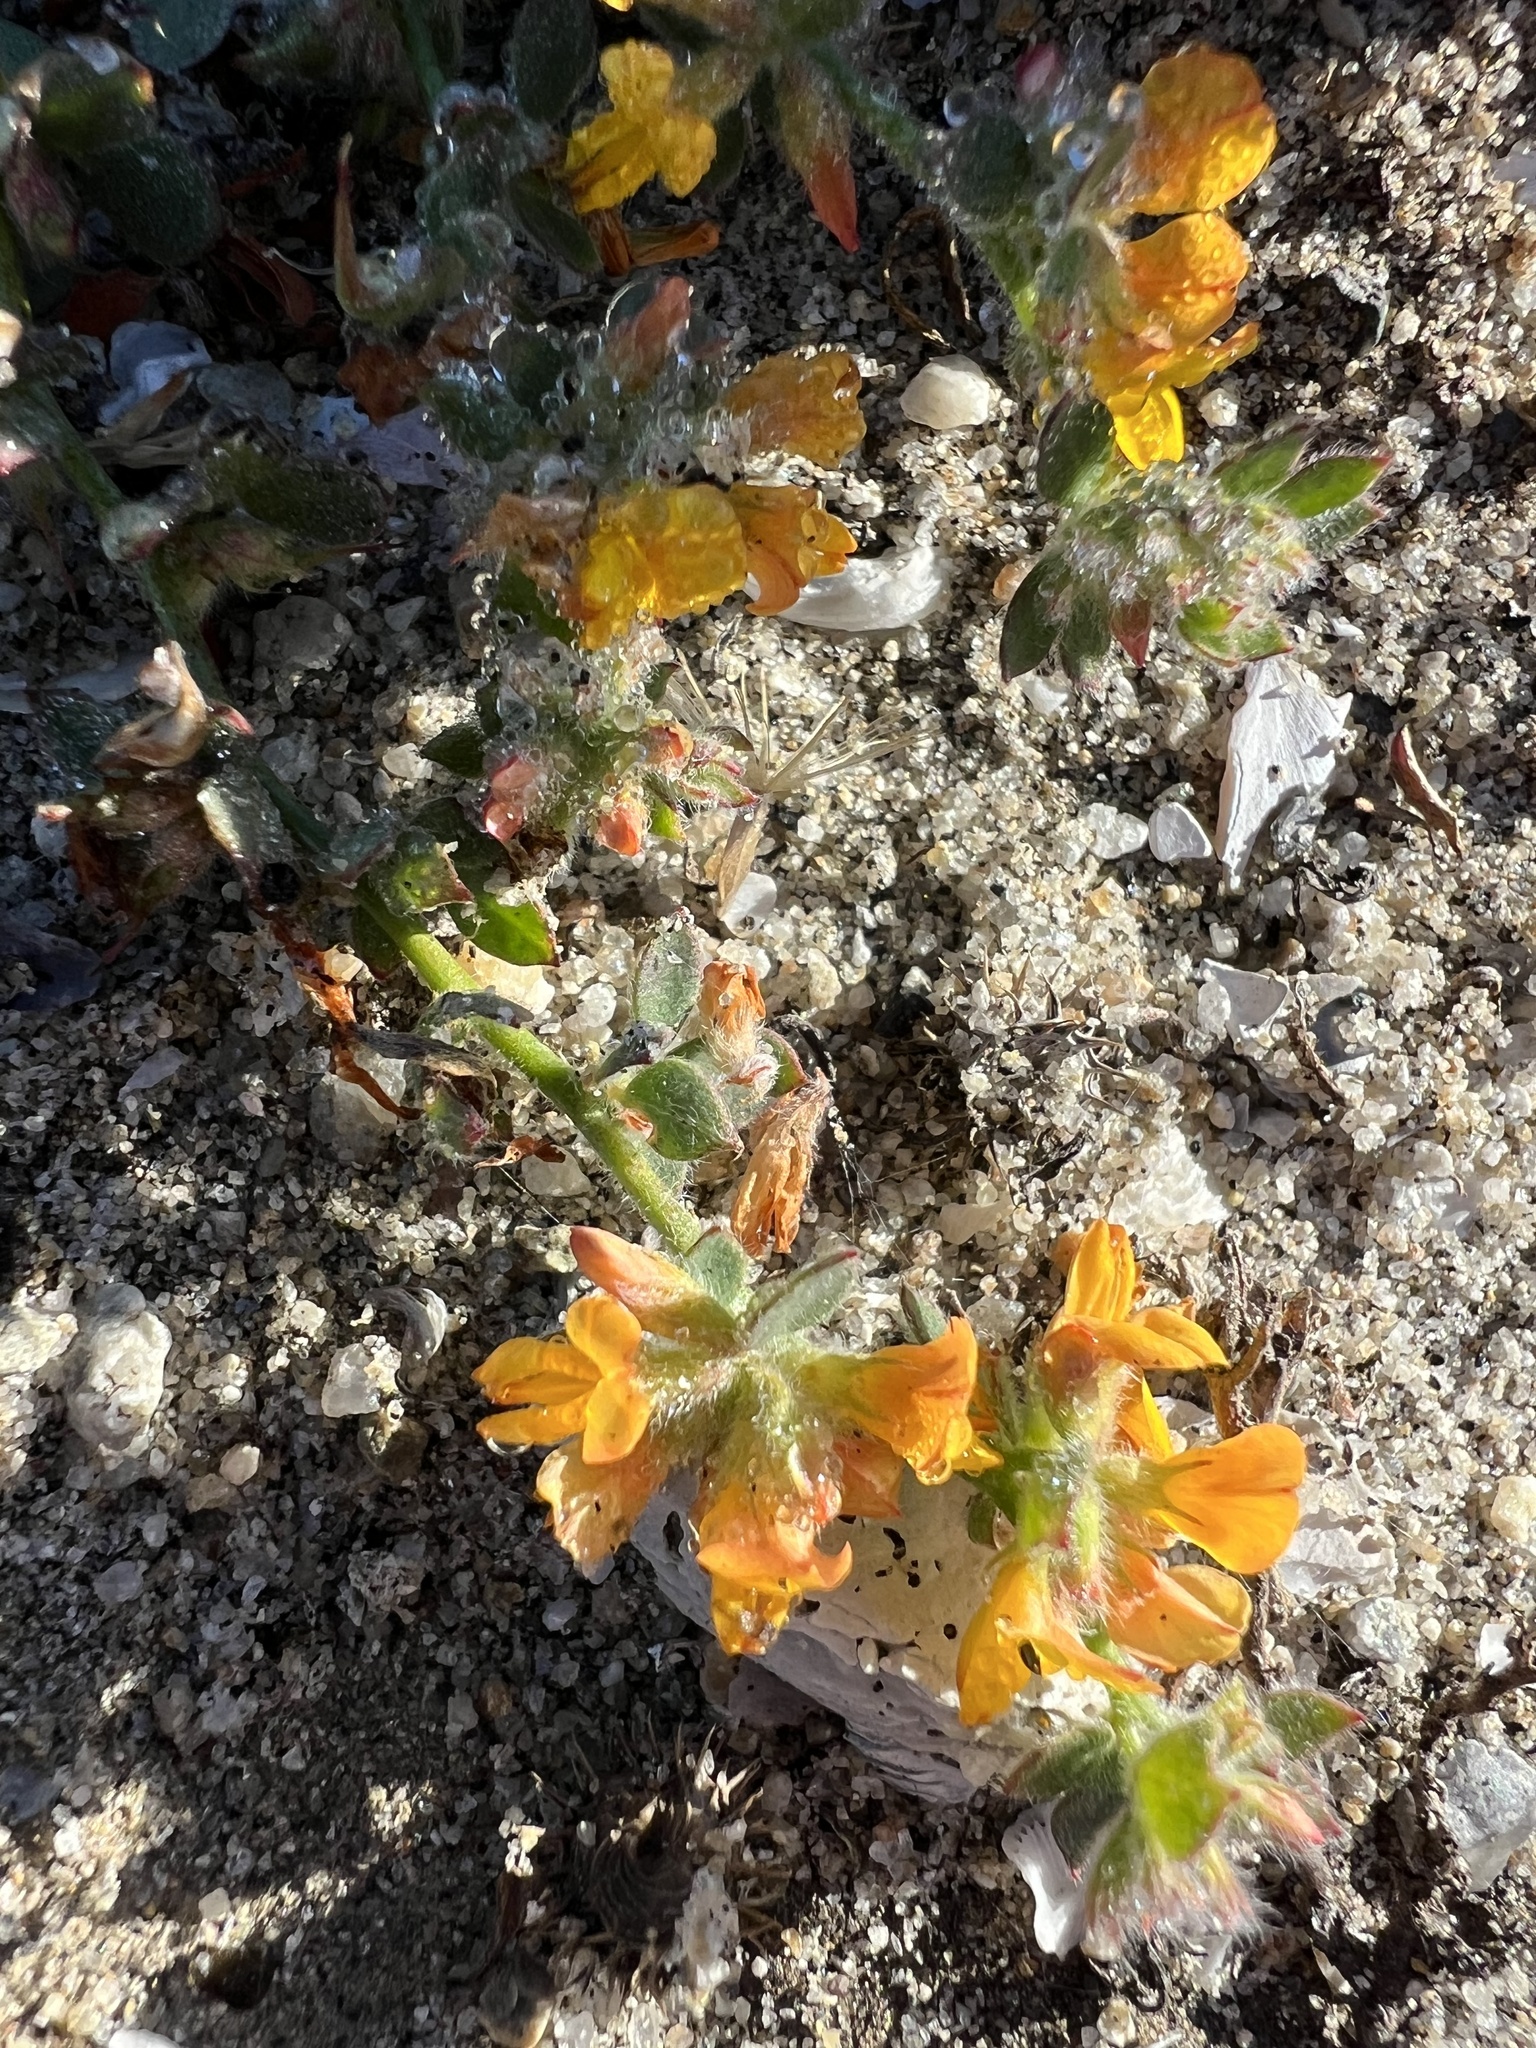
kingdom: Plantae
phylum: Tracheophyta
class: Magnoliopsida
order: Fabales
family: Fabaceae
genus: Acmispon
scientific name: Acmispon tomentosus
